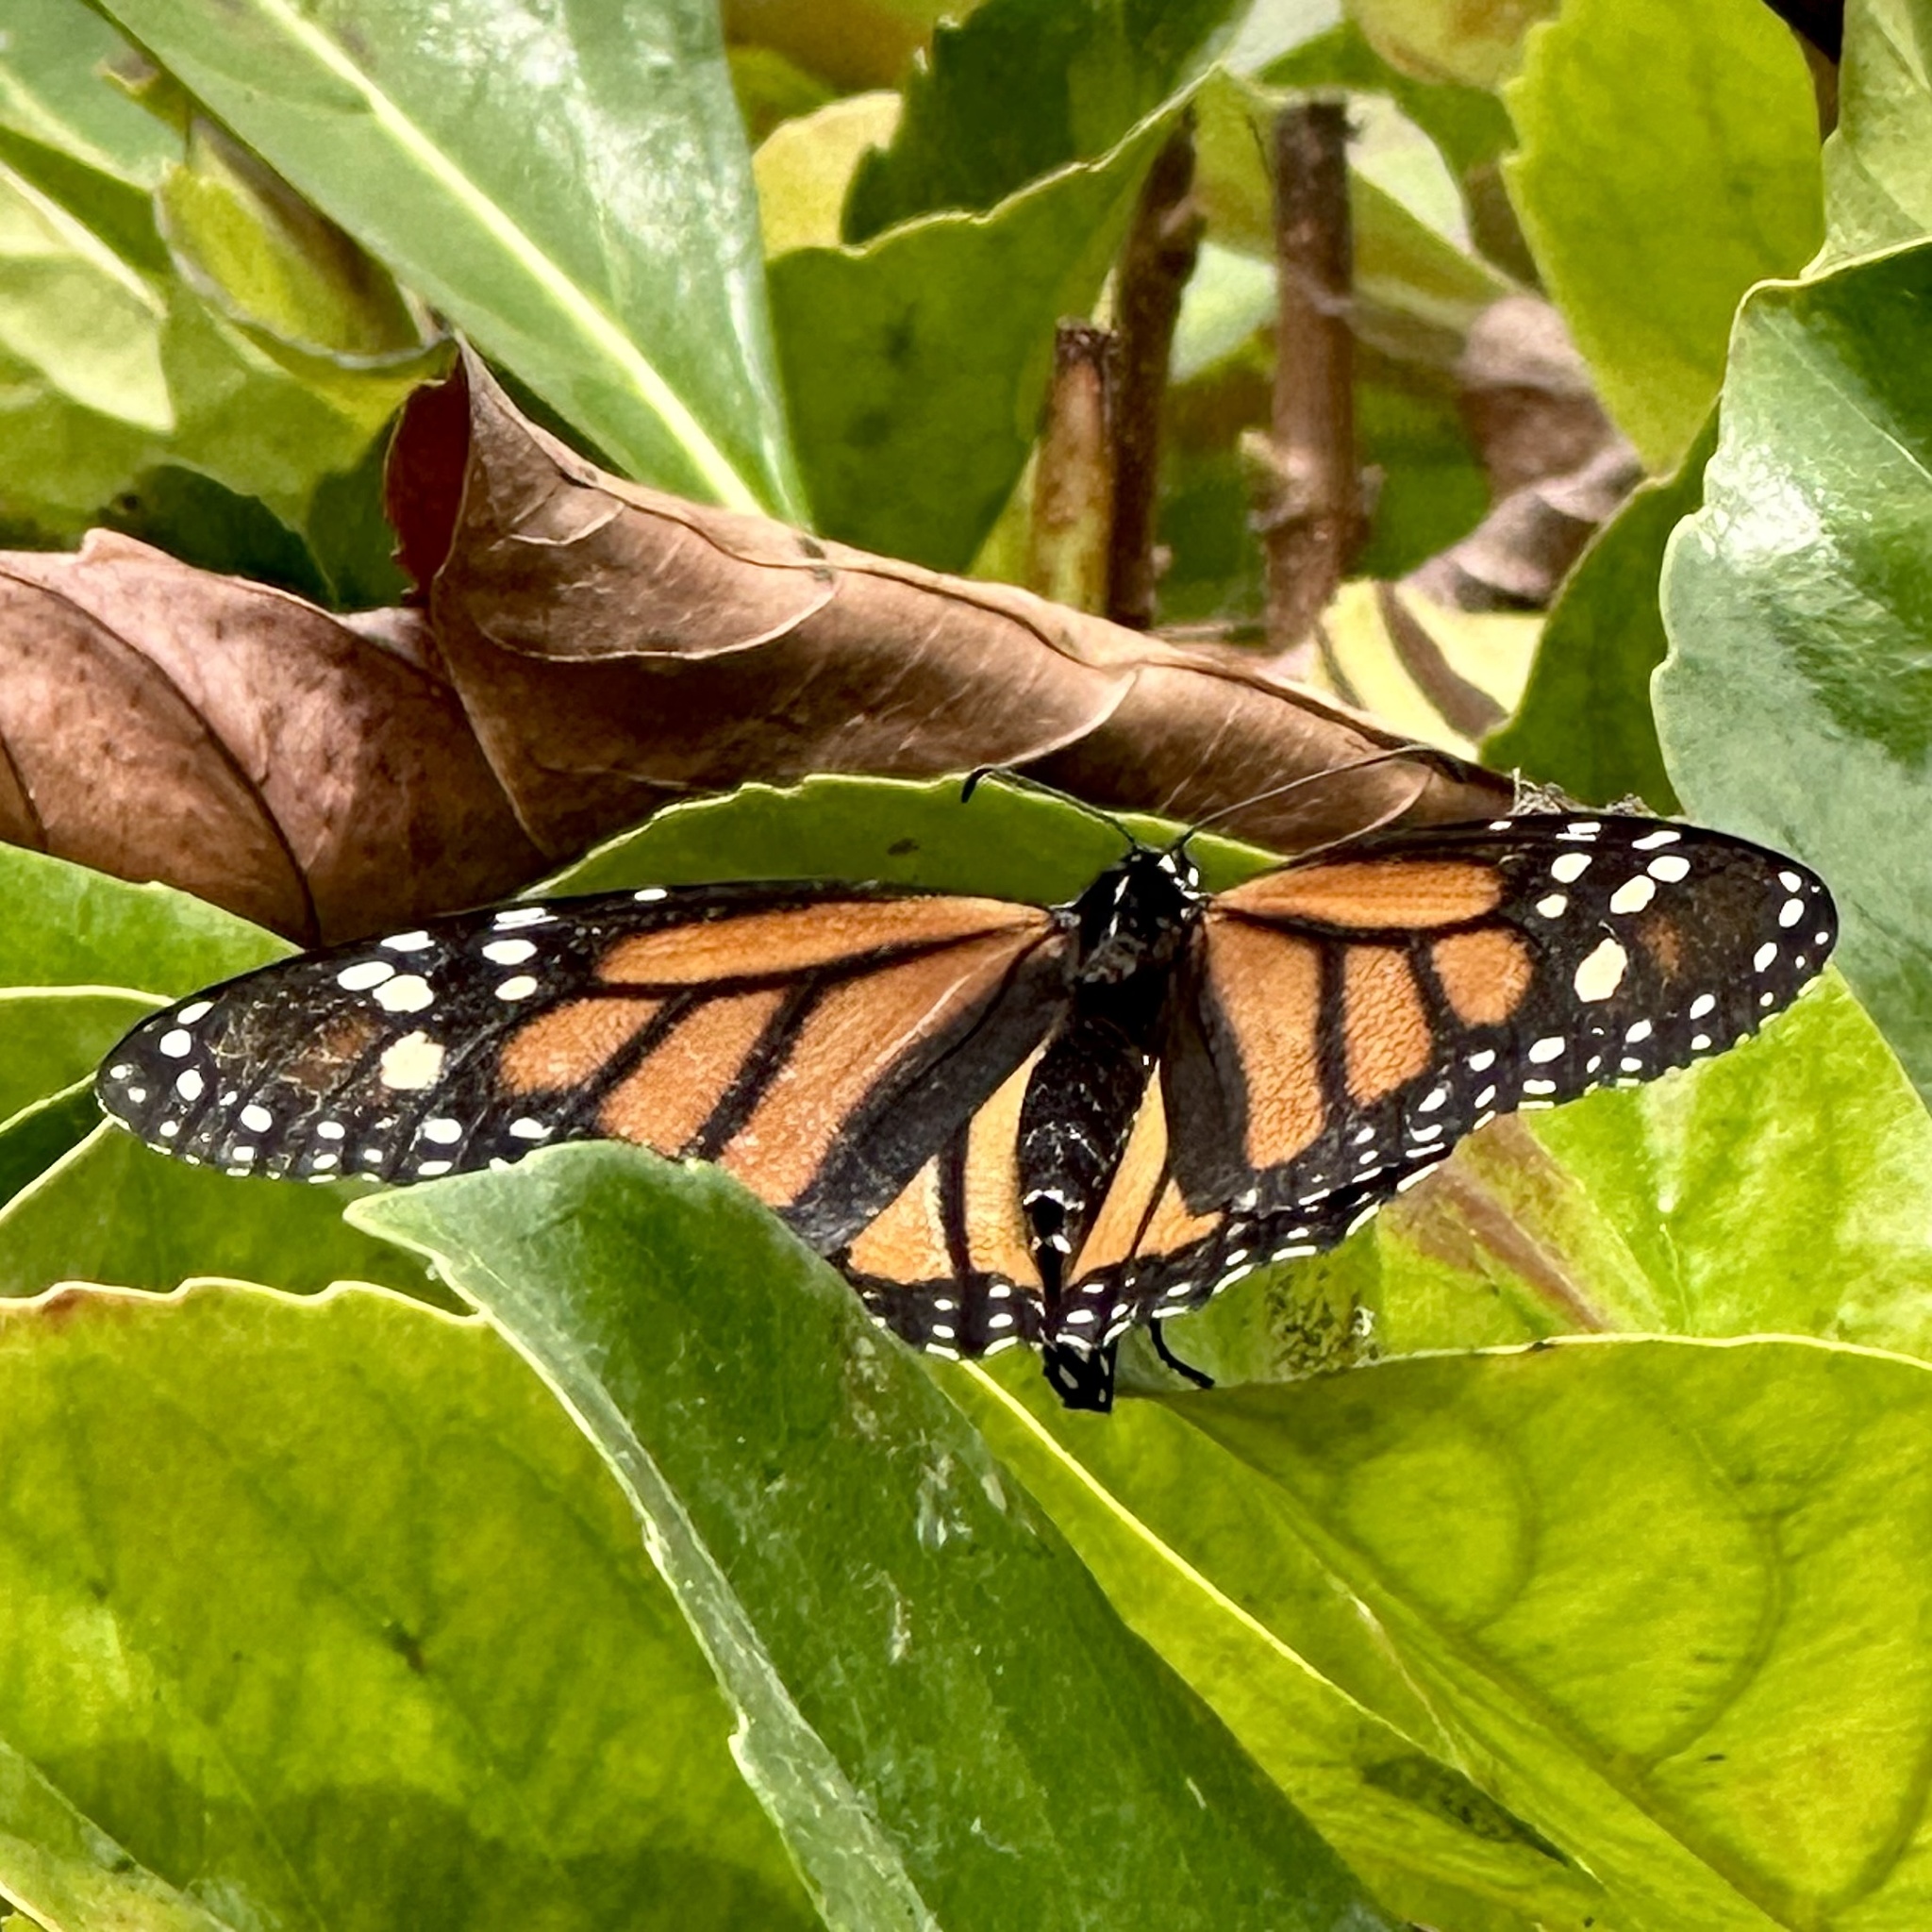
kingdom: Animalia
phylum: Arthropoda
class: Insecta
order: Lepidoptera
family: Nymphalidae
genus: Danaus
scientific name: Danaus plexippus
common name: Monarch
